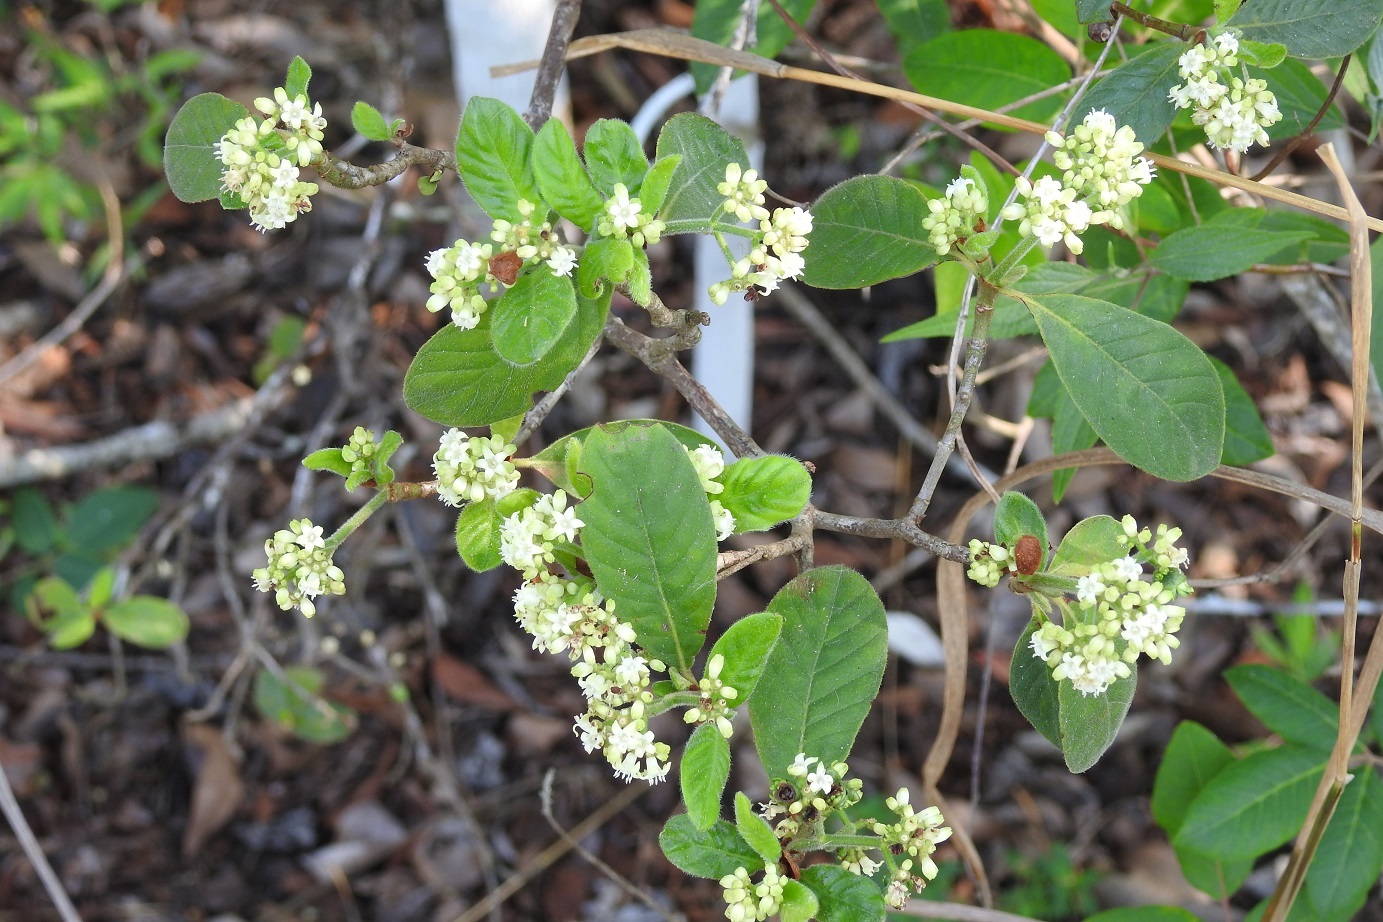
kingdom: Plantae
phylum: Tracheophyta
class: Magnoliopsida
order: Gentianales
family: Rubiaceae
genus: Psychotria
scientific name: Psychotria erythrocarpa
